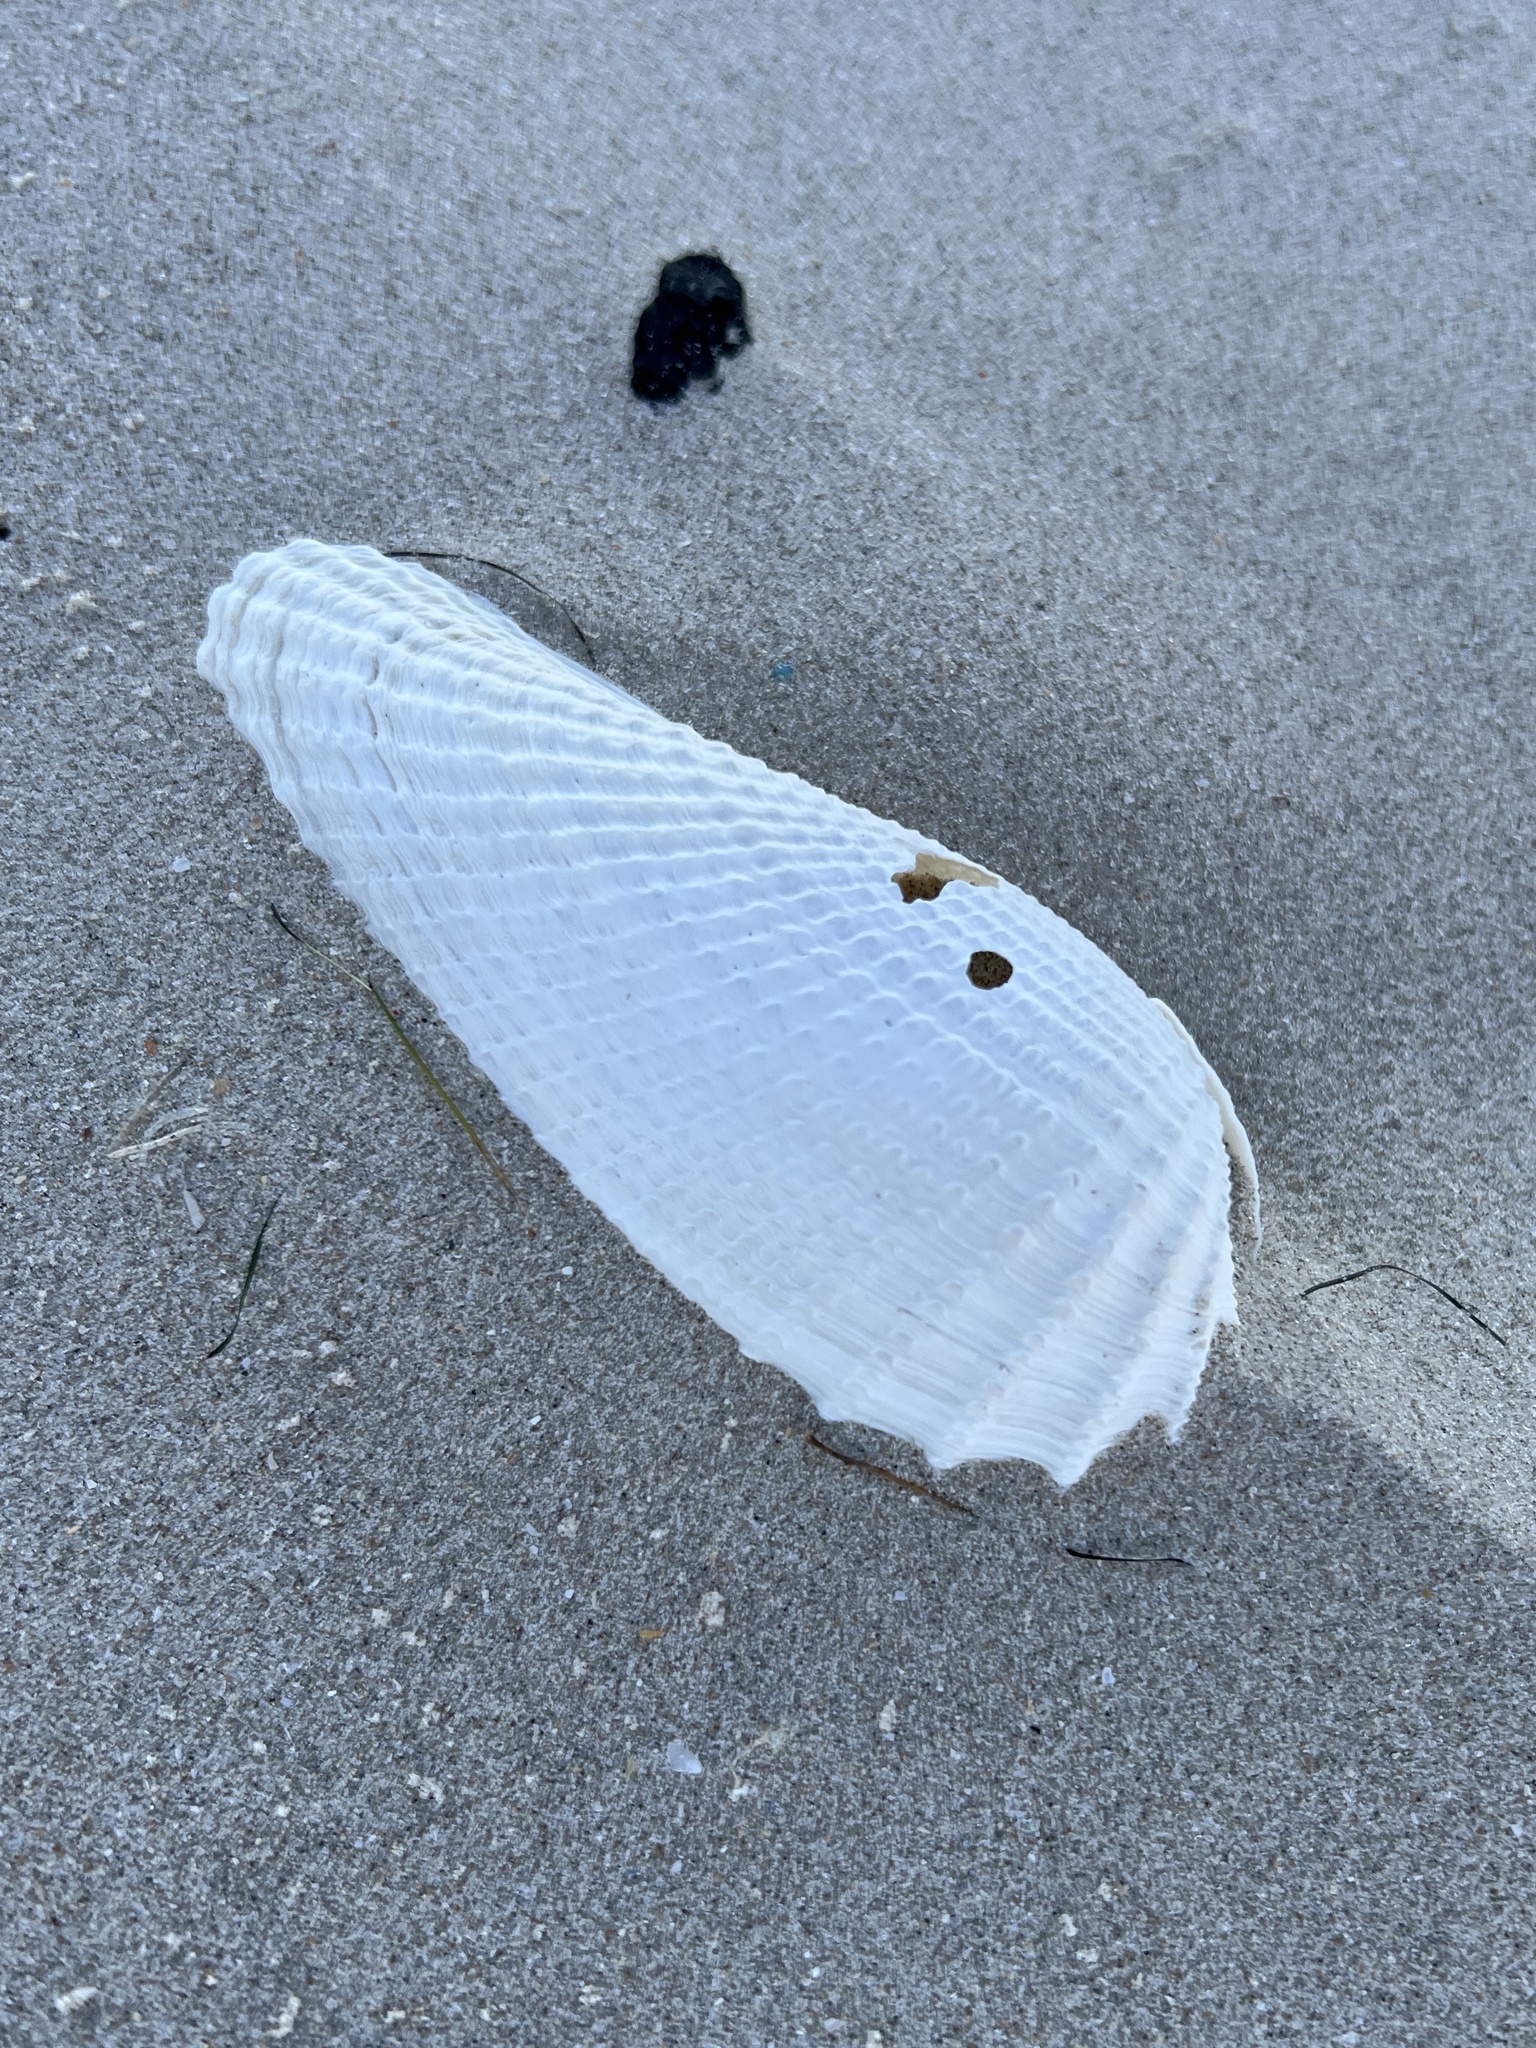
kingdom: Animalia
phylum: Mollusca
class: Bivalvia
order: Myida
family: Pholadidae
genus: Cyrtopleura
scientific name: Cyrtopleura costata
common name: Angel wing
